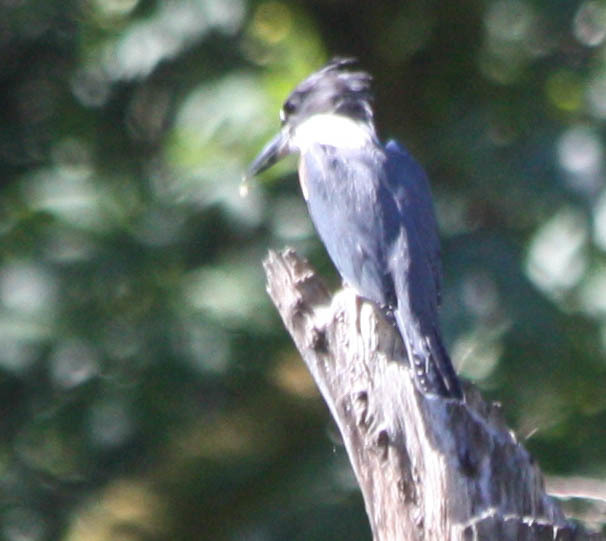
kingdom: Animalia
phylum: Chordata
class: Aves
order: Coraciiformes
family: Alcedinidae
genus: Megaceryle
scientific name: Megaceryle alcyon
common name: Belted kingfisher
